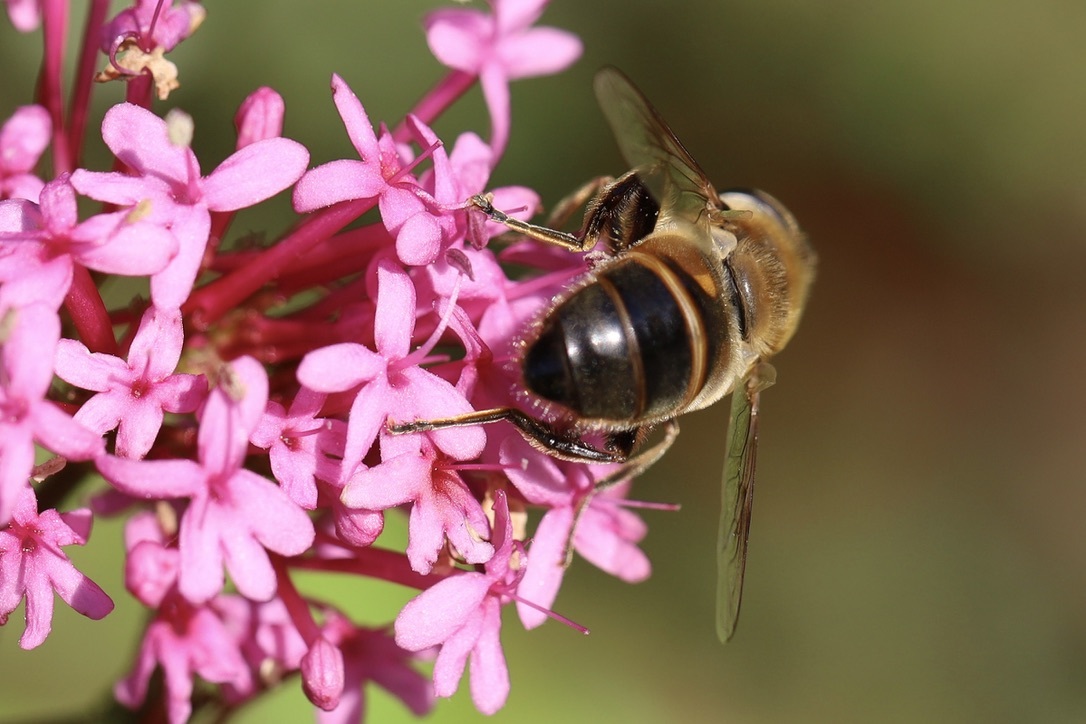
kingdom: Animalia
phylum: Arthropoda
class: Insecta
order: Diptera
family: Syrphidae
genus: Eristalis
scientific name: Eristalis tenax
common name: Drone fly
